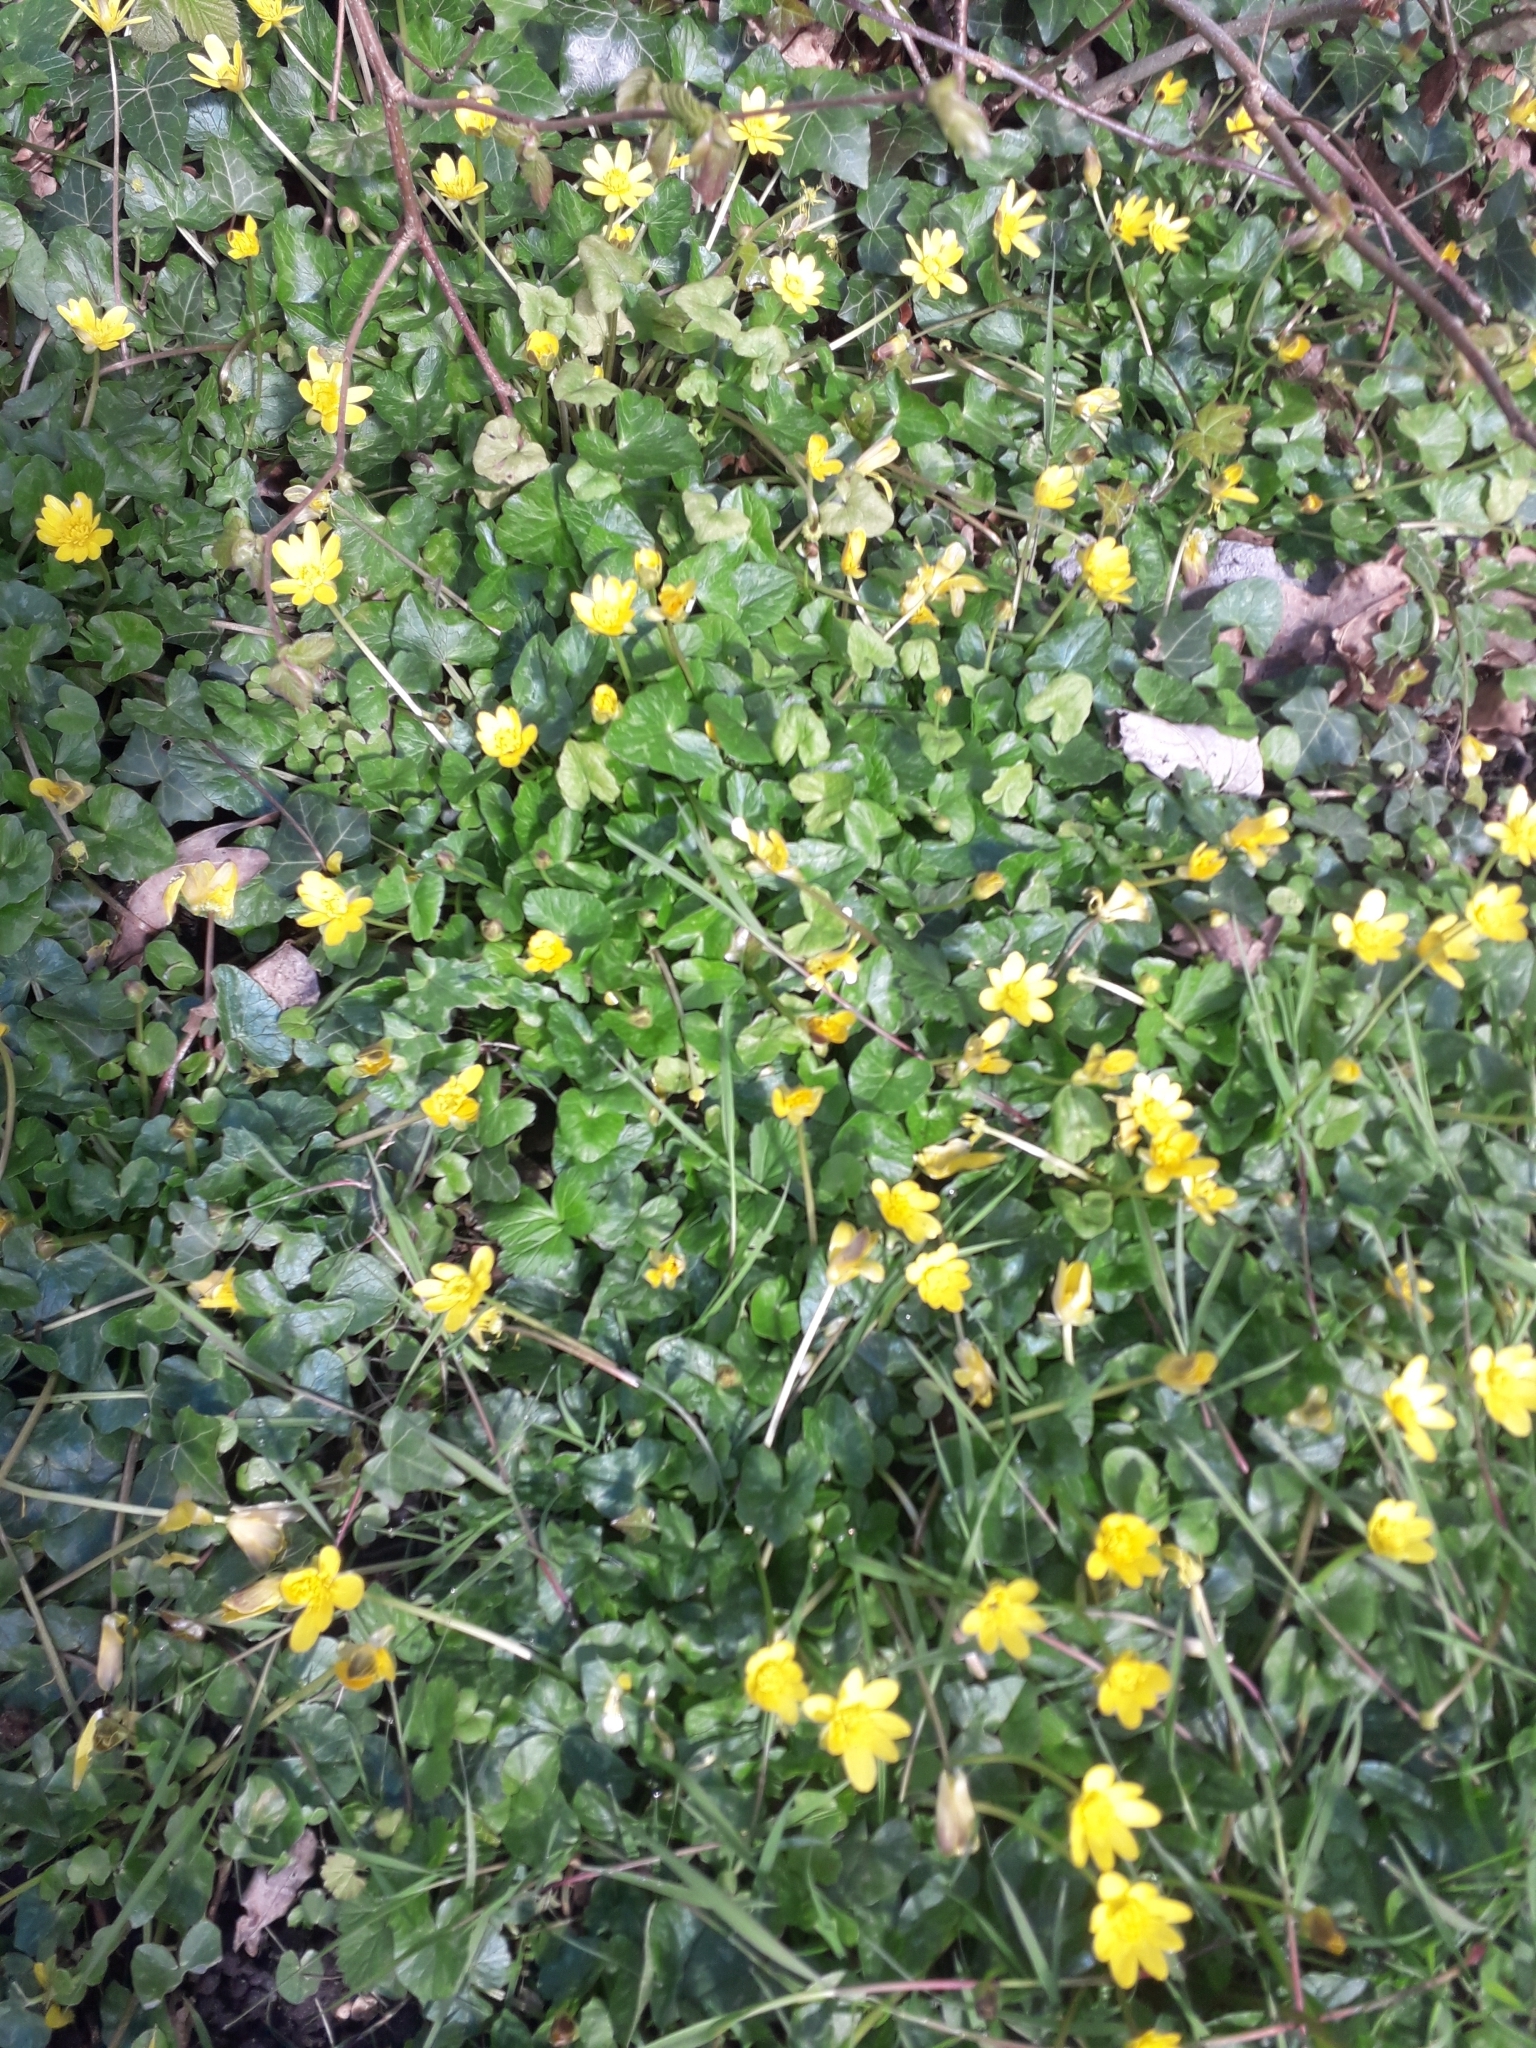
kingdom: Plantae
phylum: Tracheophyta
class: Magnoliopsida
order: Ranunculales
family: Ranunculaceae
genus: Ficaria
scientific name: Ficaria verna
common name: Lesser celandine
